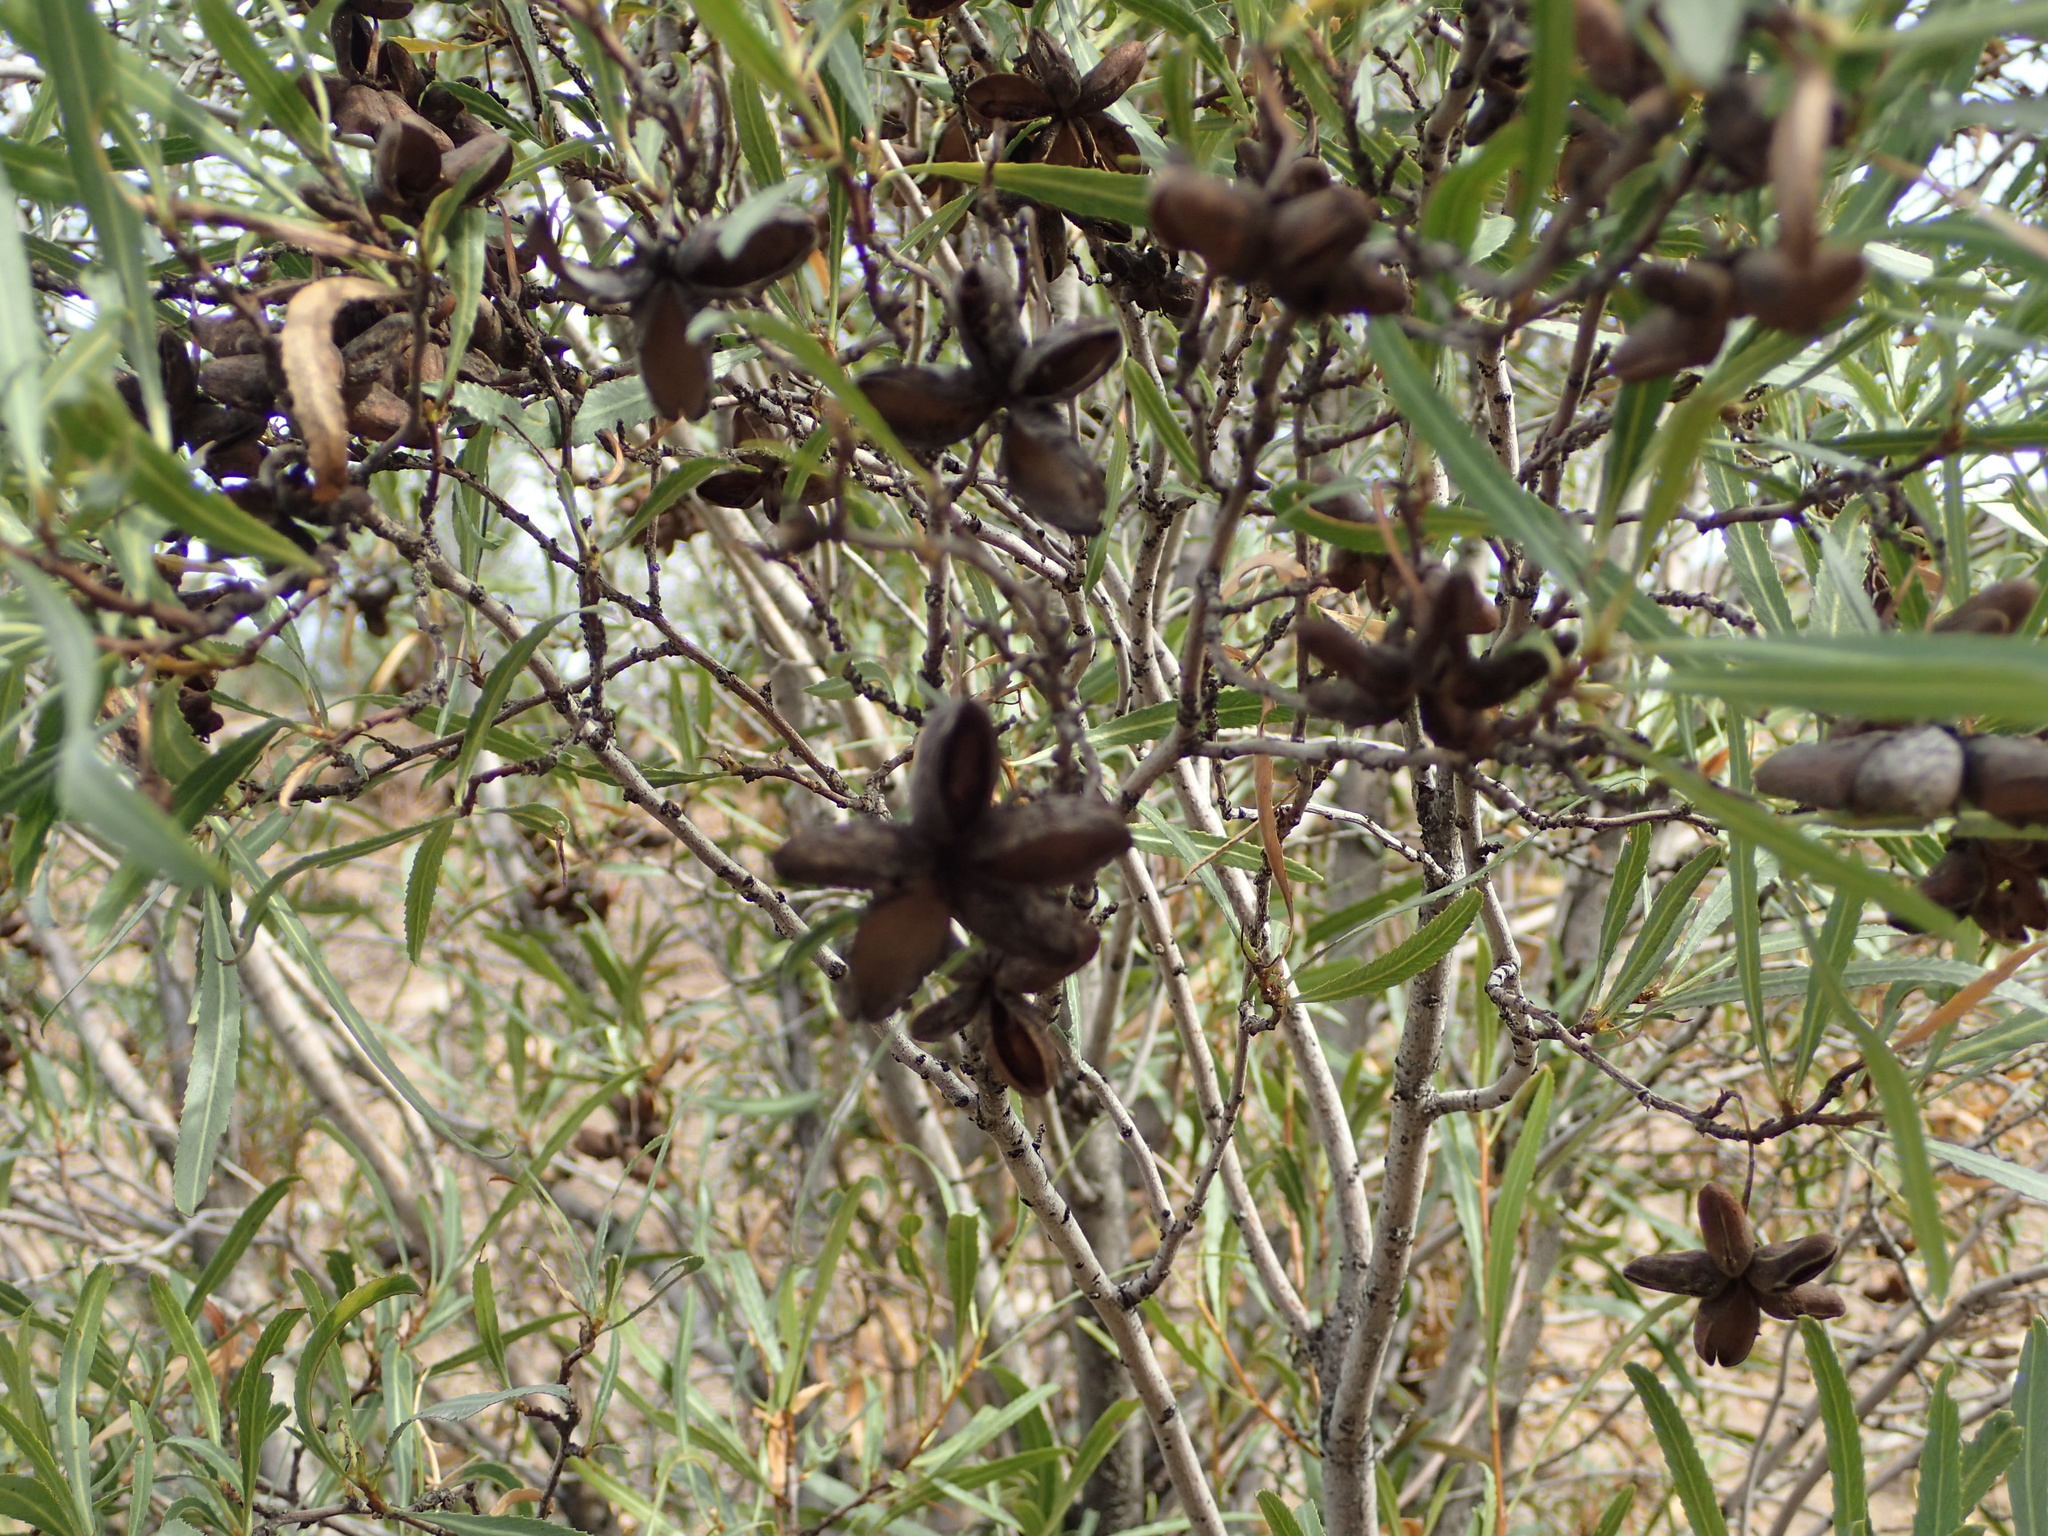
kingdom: Plantae
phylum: Tracheophyta
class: Magnoliopsida
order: Rosales
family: Rosaceae
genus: Kageneckia
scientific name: Kageneckia angustifolia
